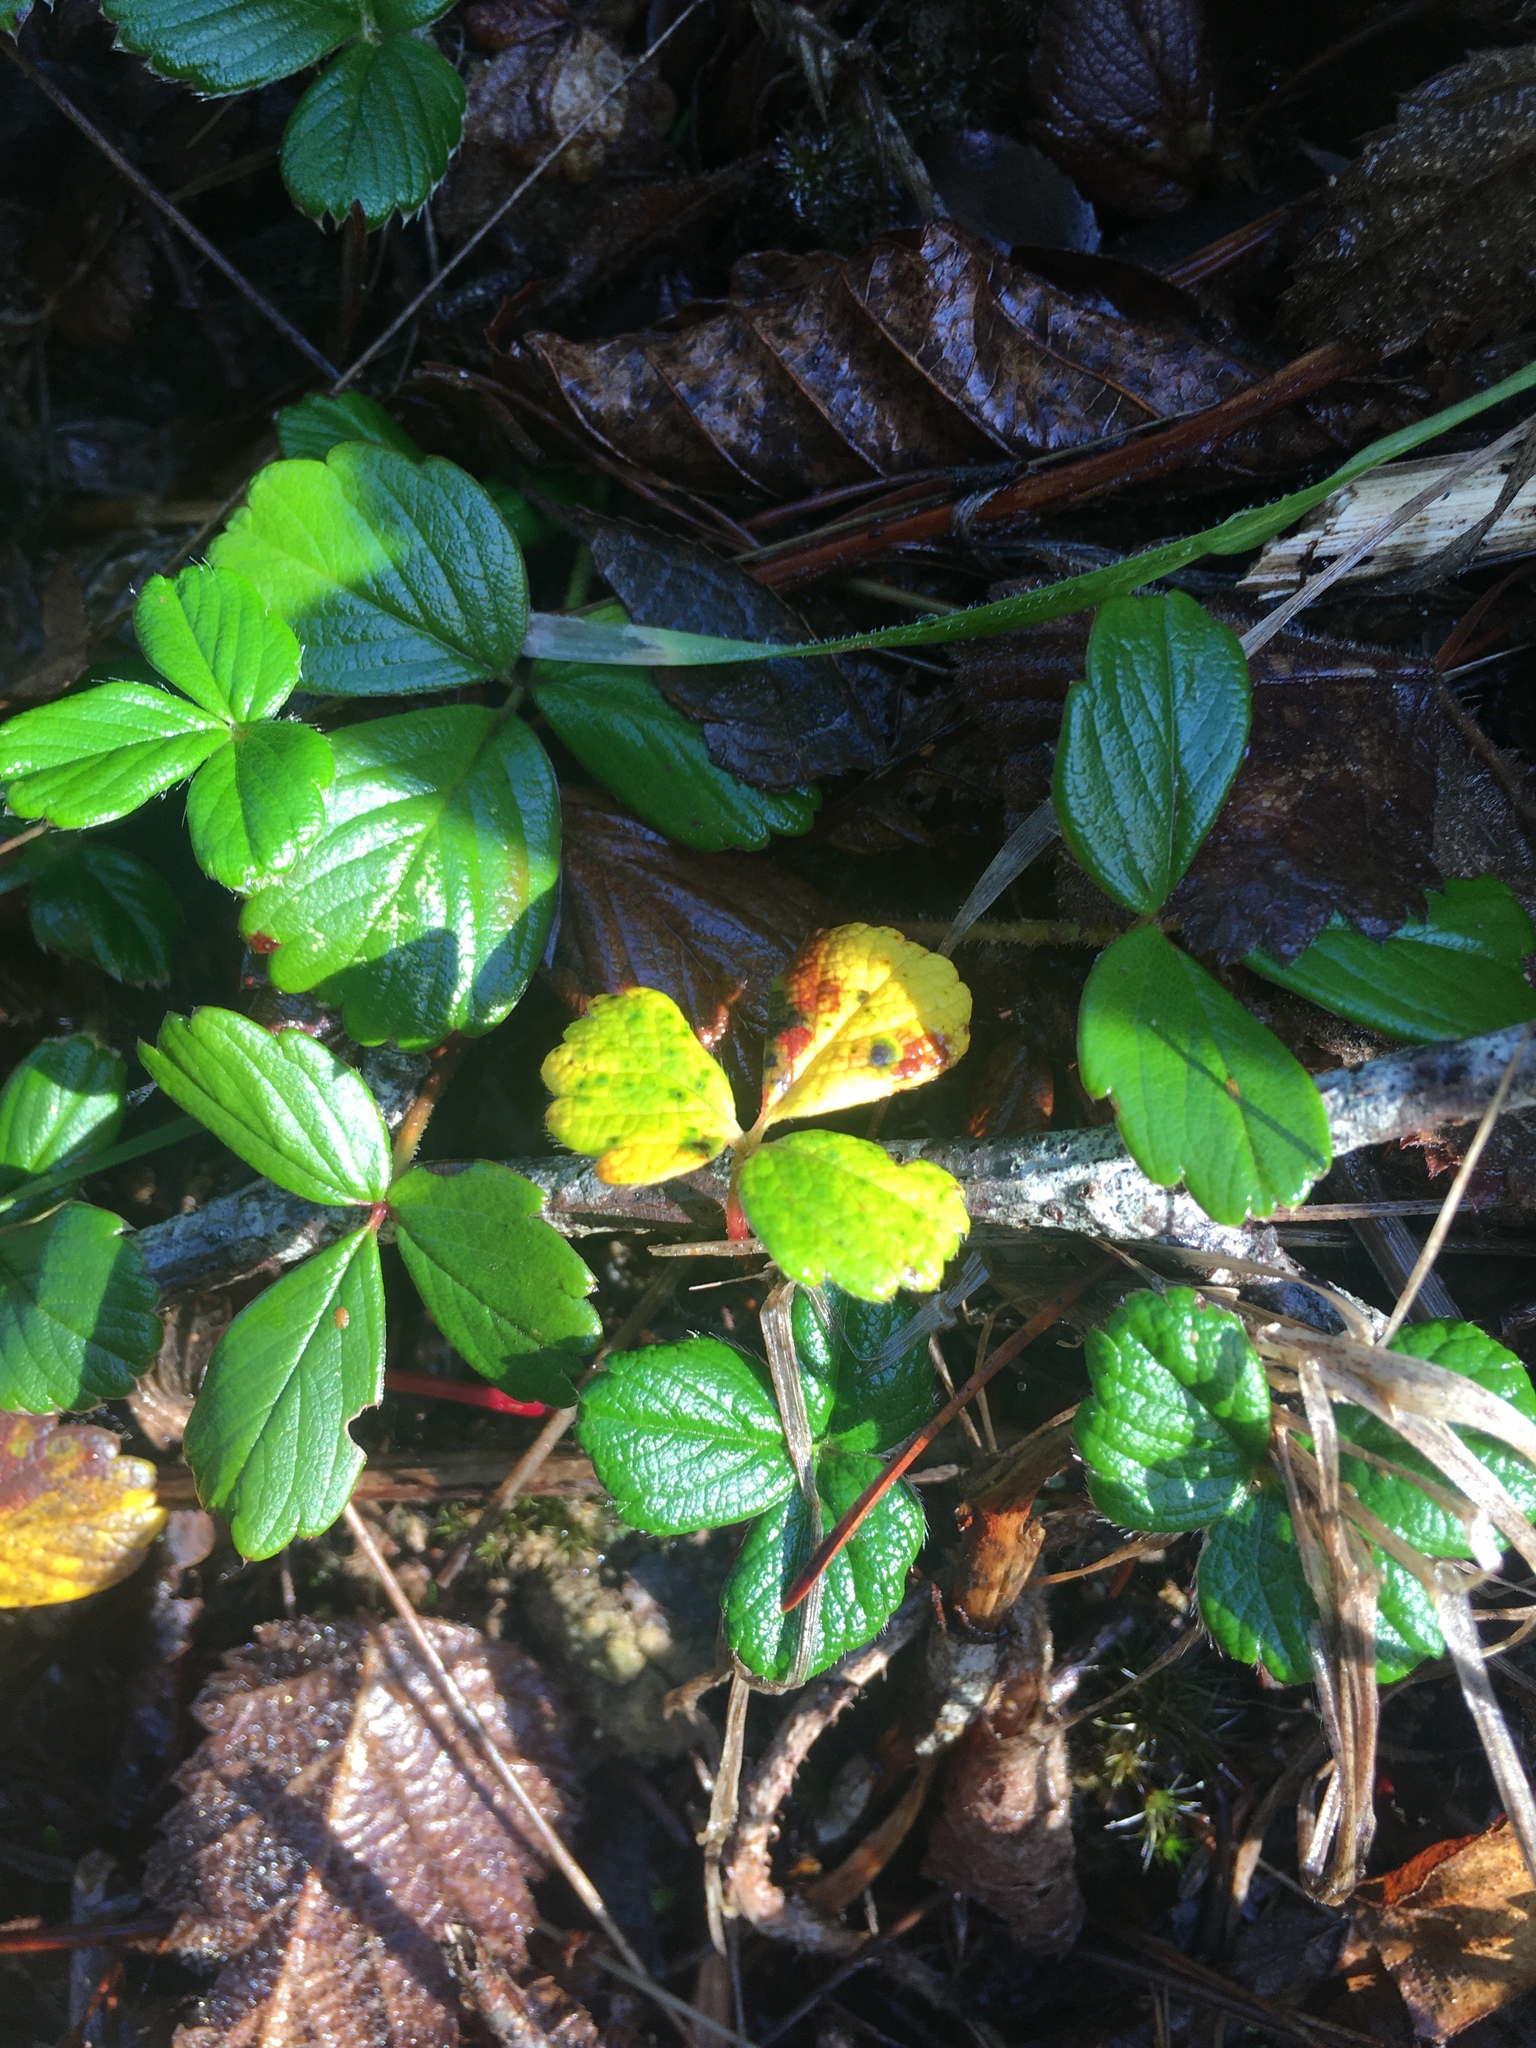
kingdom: Plantae
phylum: Tracheophyta
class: Magnoliopsida
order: Rosales
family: Rosaceae
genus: Fragaria
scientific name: Fragaria chiloensis
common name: Beach strawberry
